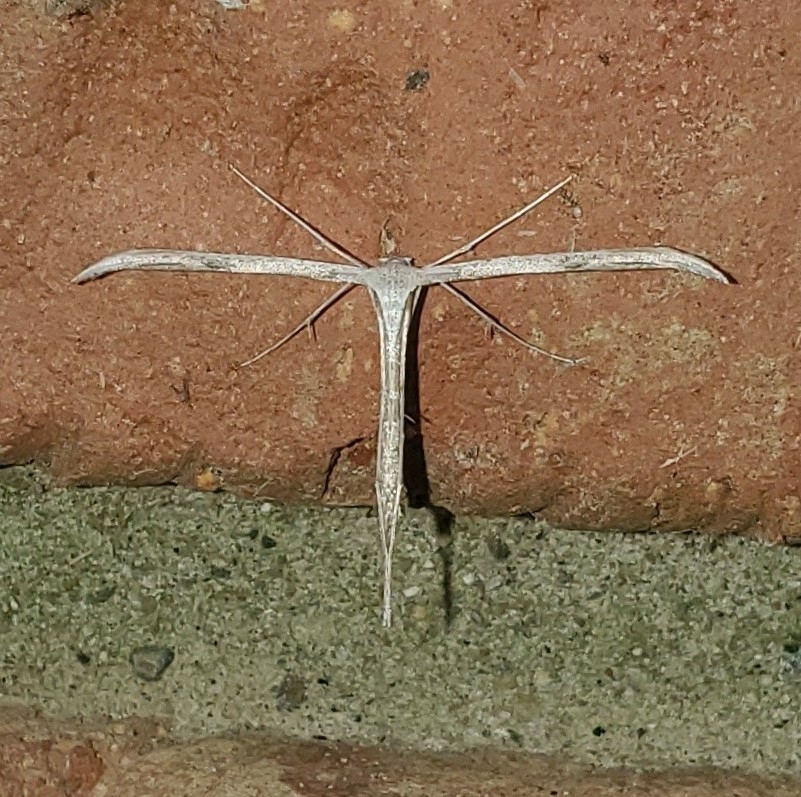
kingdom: Animalia
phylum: Arthropoda
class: Insecta
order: Lepidoptera
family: Pterophoridae
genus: Emmelina
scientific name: Emmelina monodactyla
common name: Common plume
